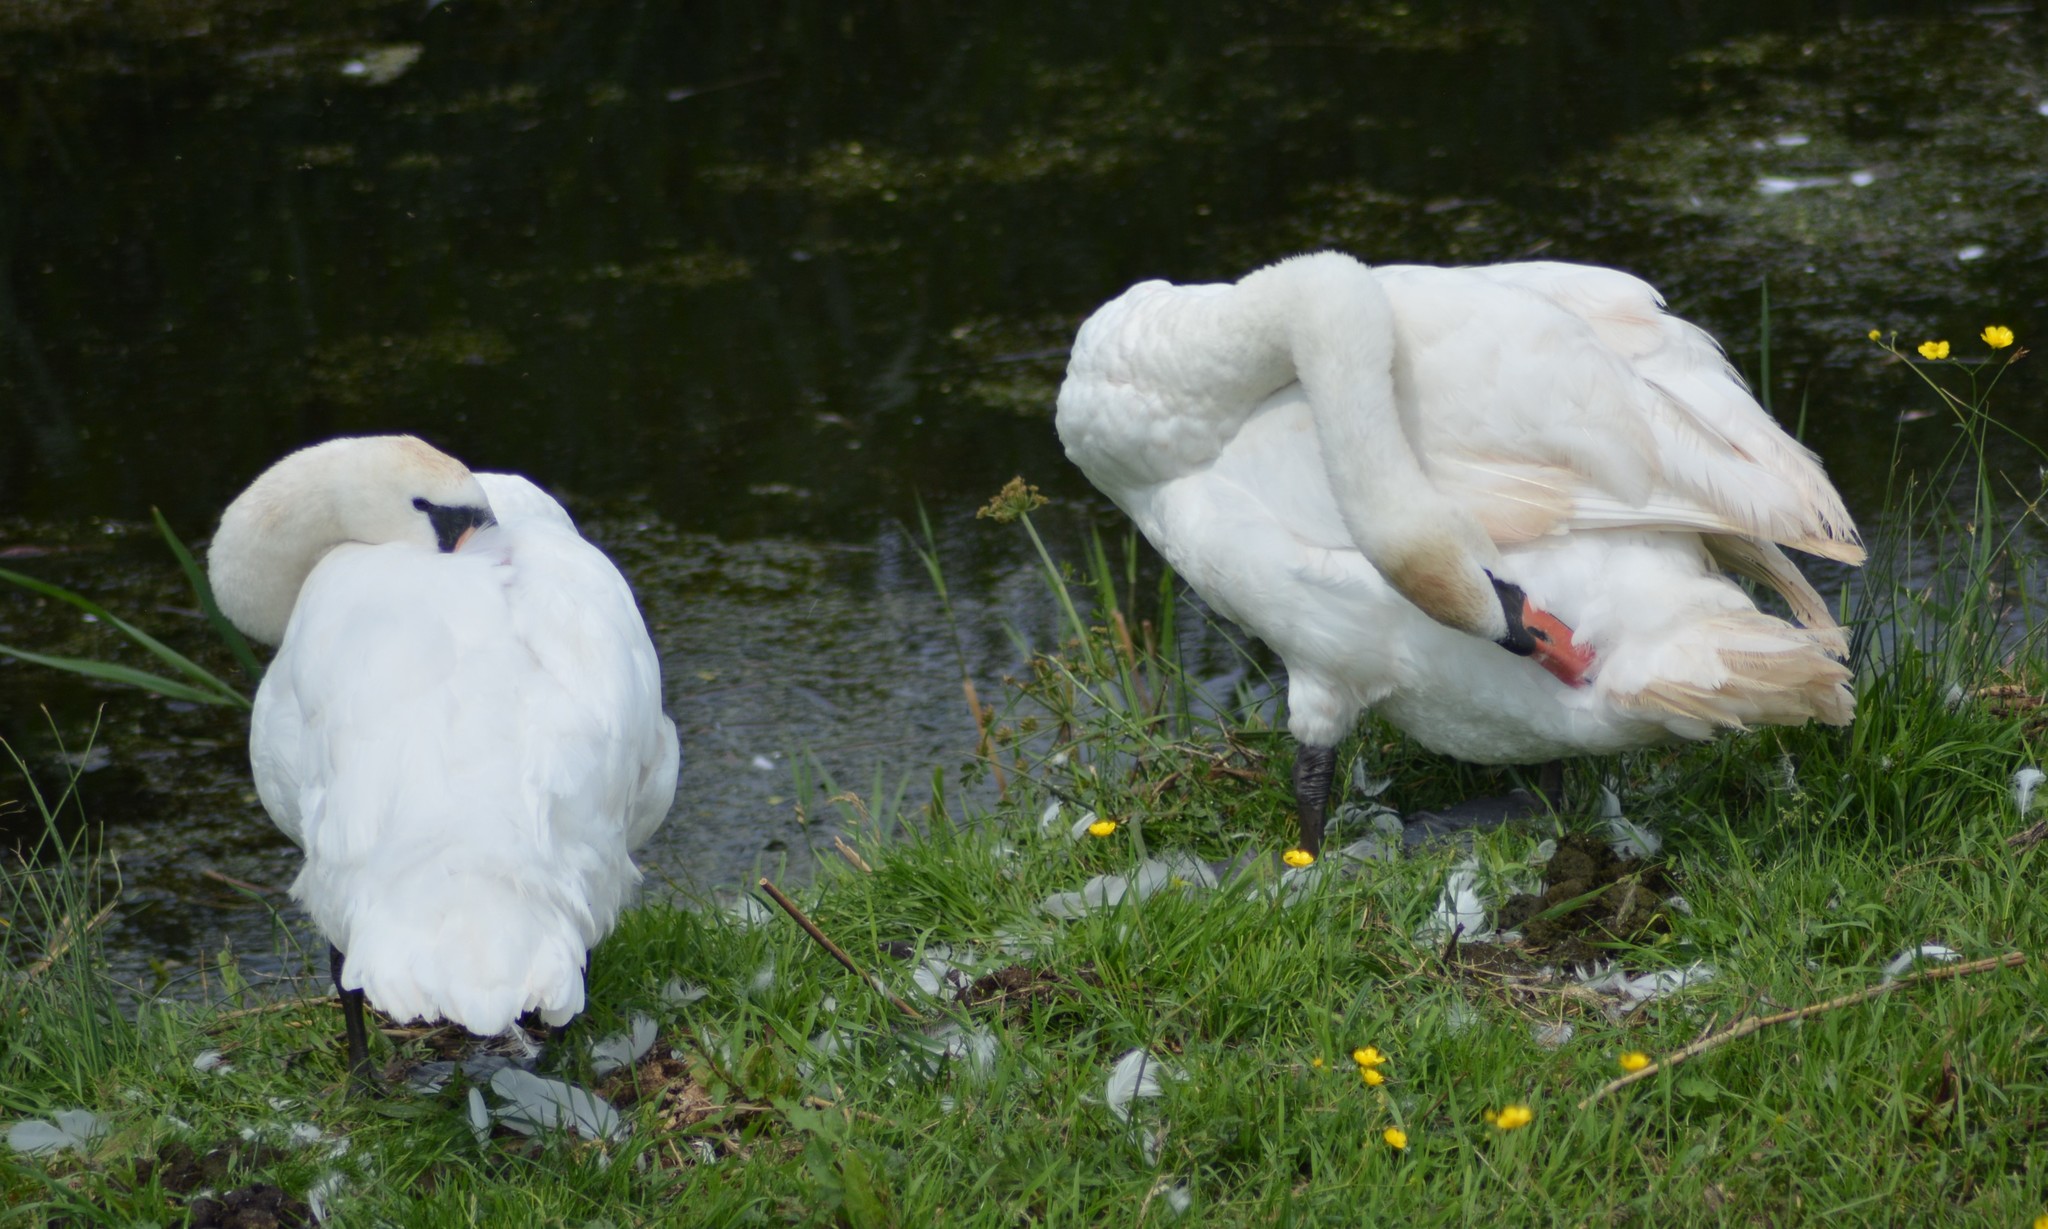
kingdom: Animalia
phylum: Chordata
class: Aves
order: Anseriformes
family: Anatidae
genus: Cygnus
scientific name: Cygnus olor
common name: Mute swan
